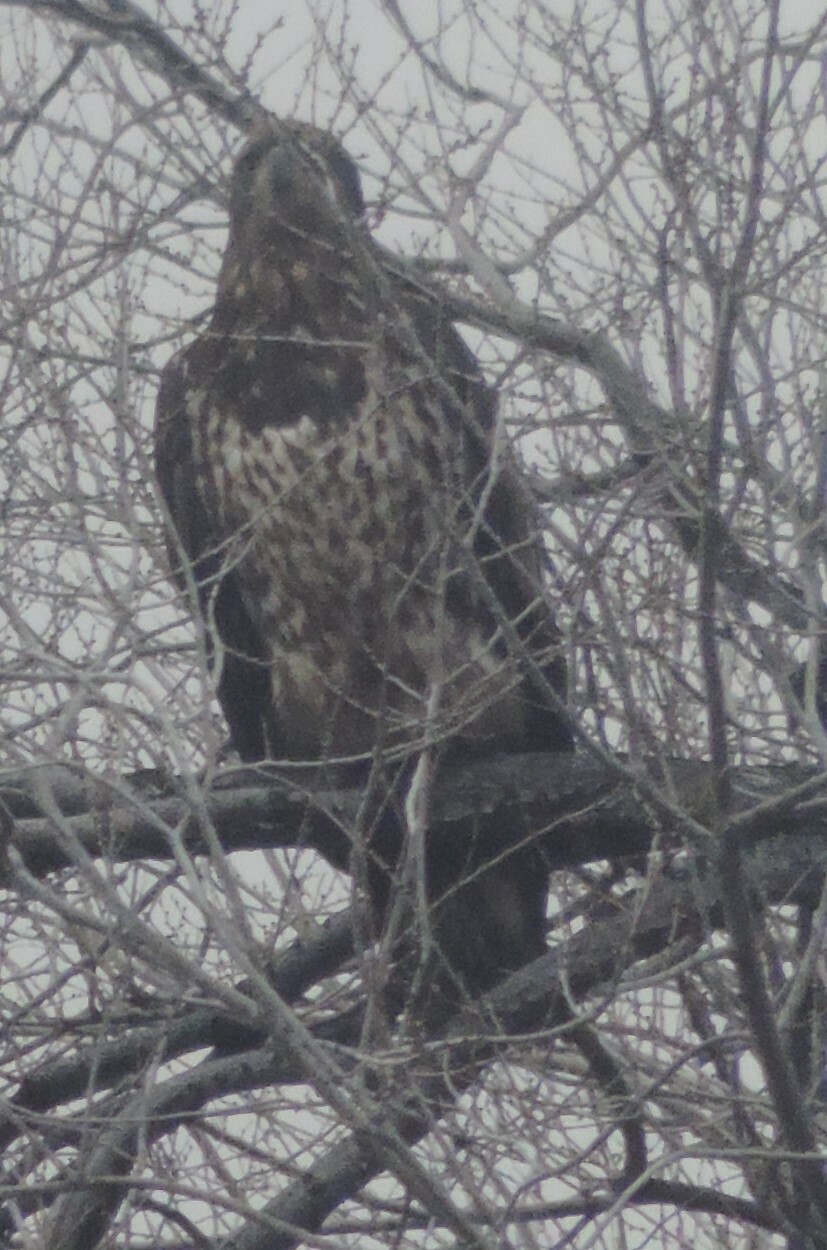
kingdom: Animalia
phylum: Chordata
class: Aves
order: Accipitriformes
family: Accipitridae
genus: Haliaeetus
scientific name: Haliaeetus leucocephalus
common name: Bald eagle
